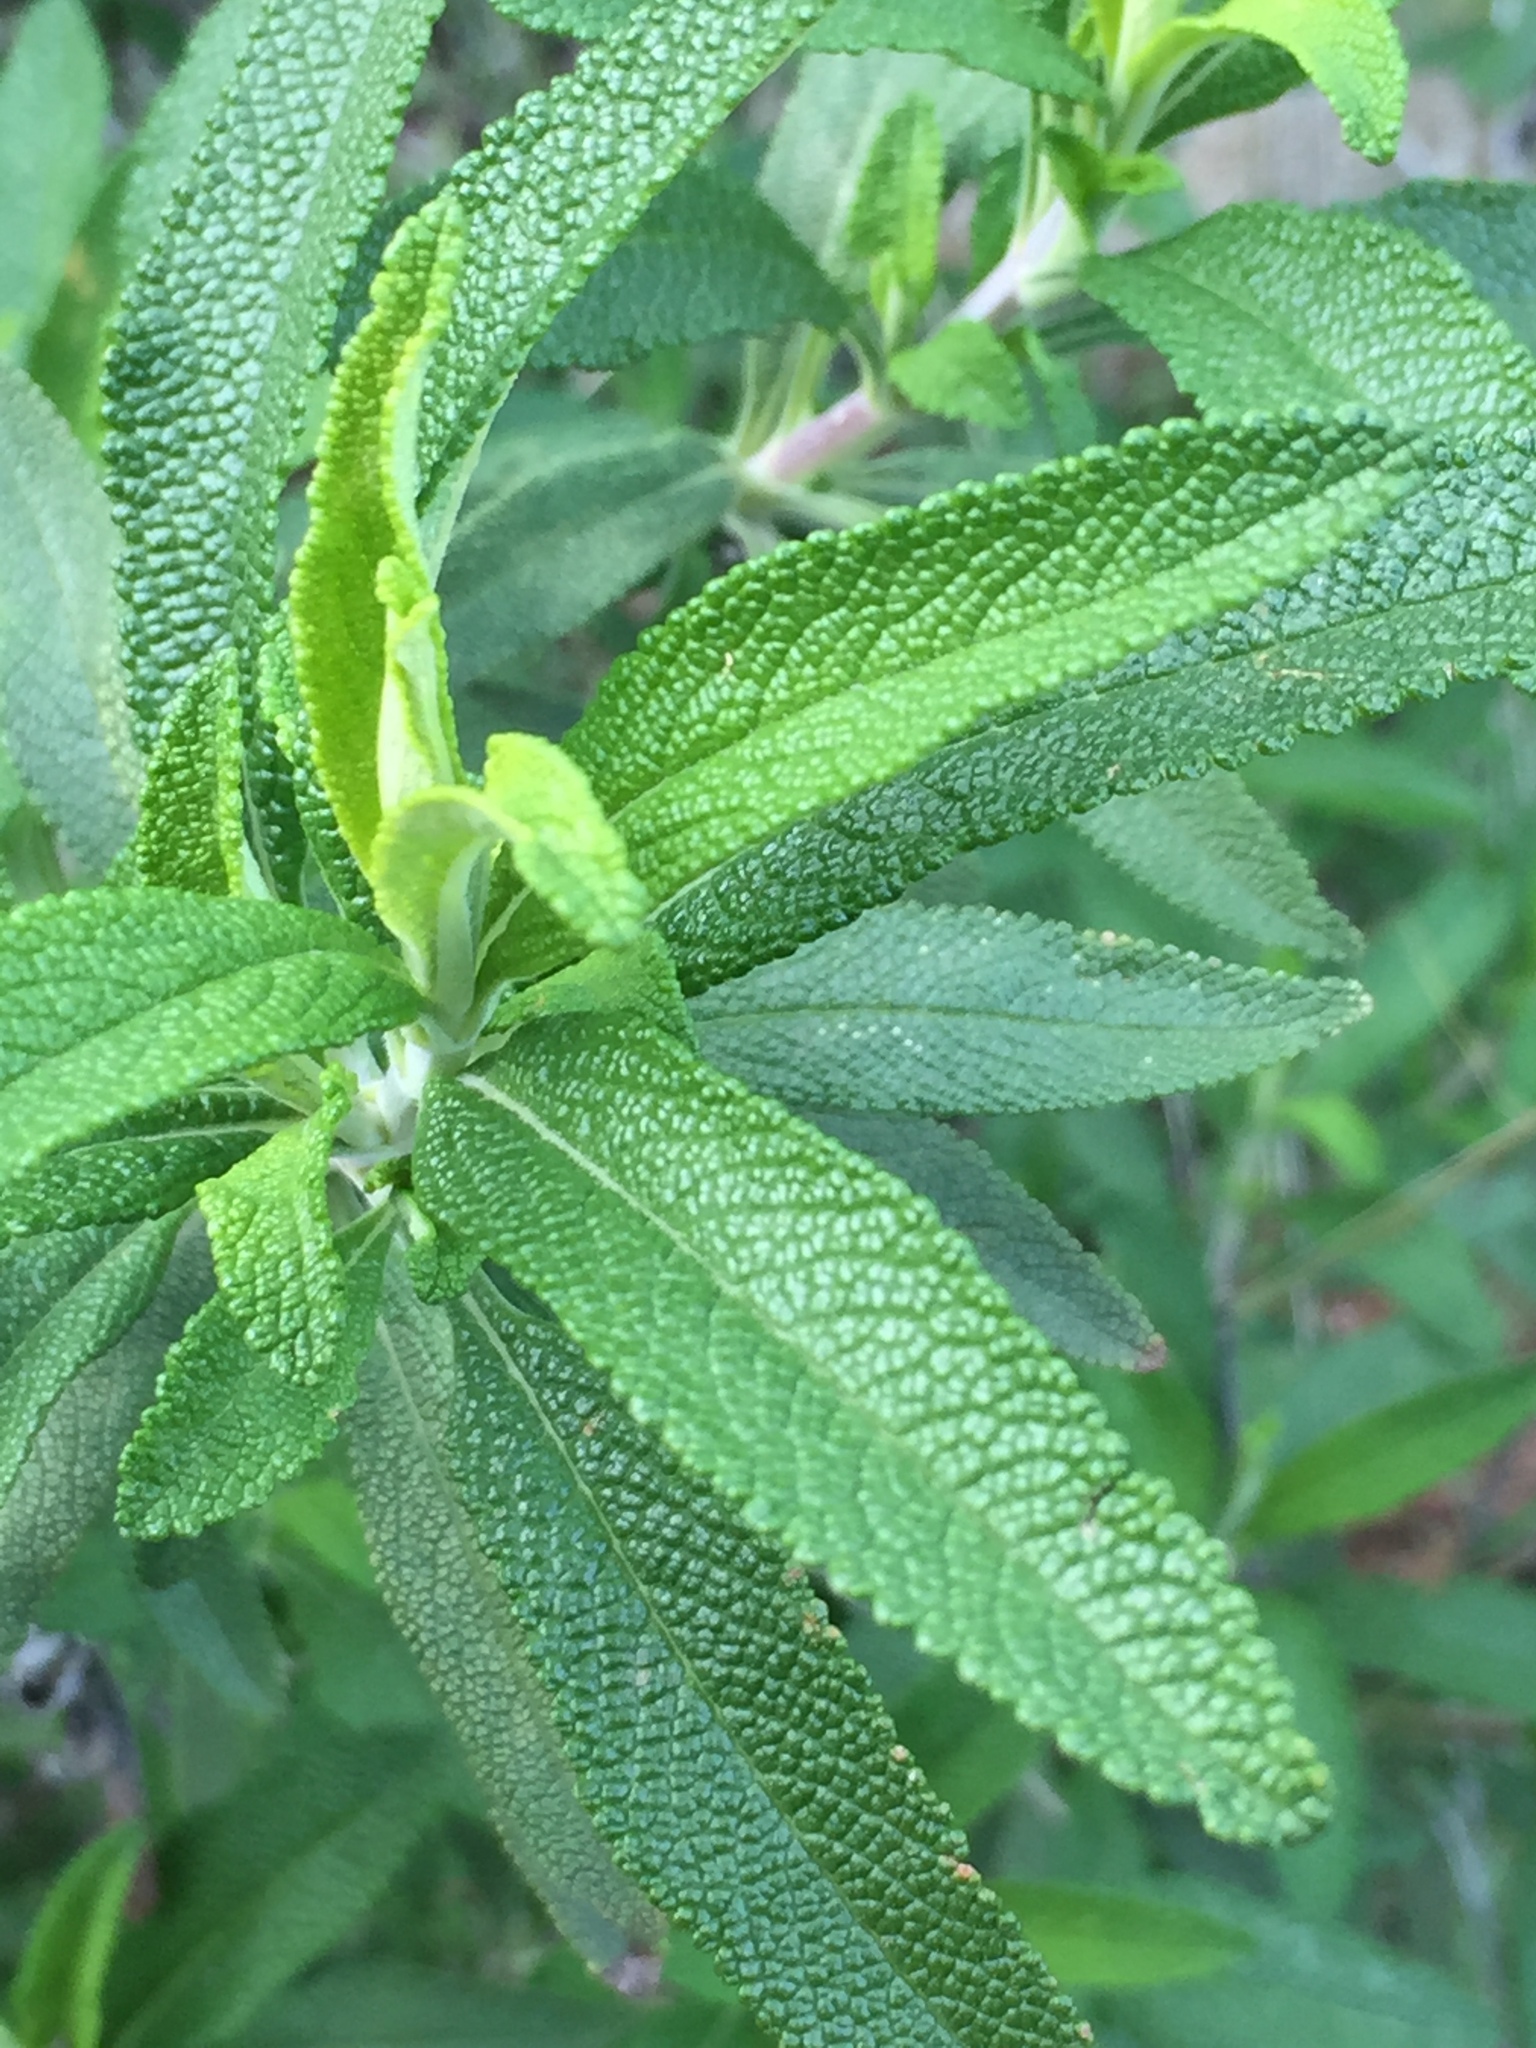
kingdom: Plantae
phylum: Tracheophyta
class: Magnoliopsida
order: Lamiales
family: Lamiaceae
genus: Salvia
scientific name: Salvia mellifera
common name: Black sage
